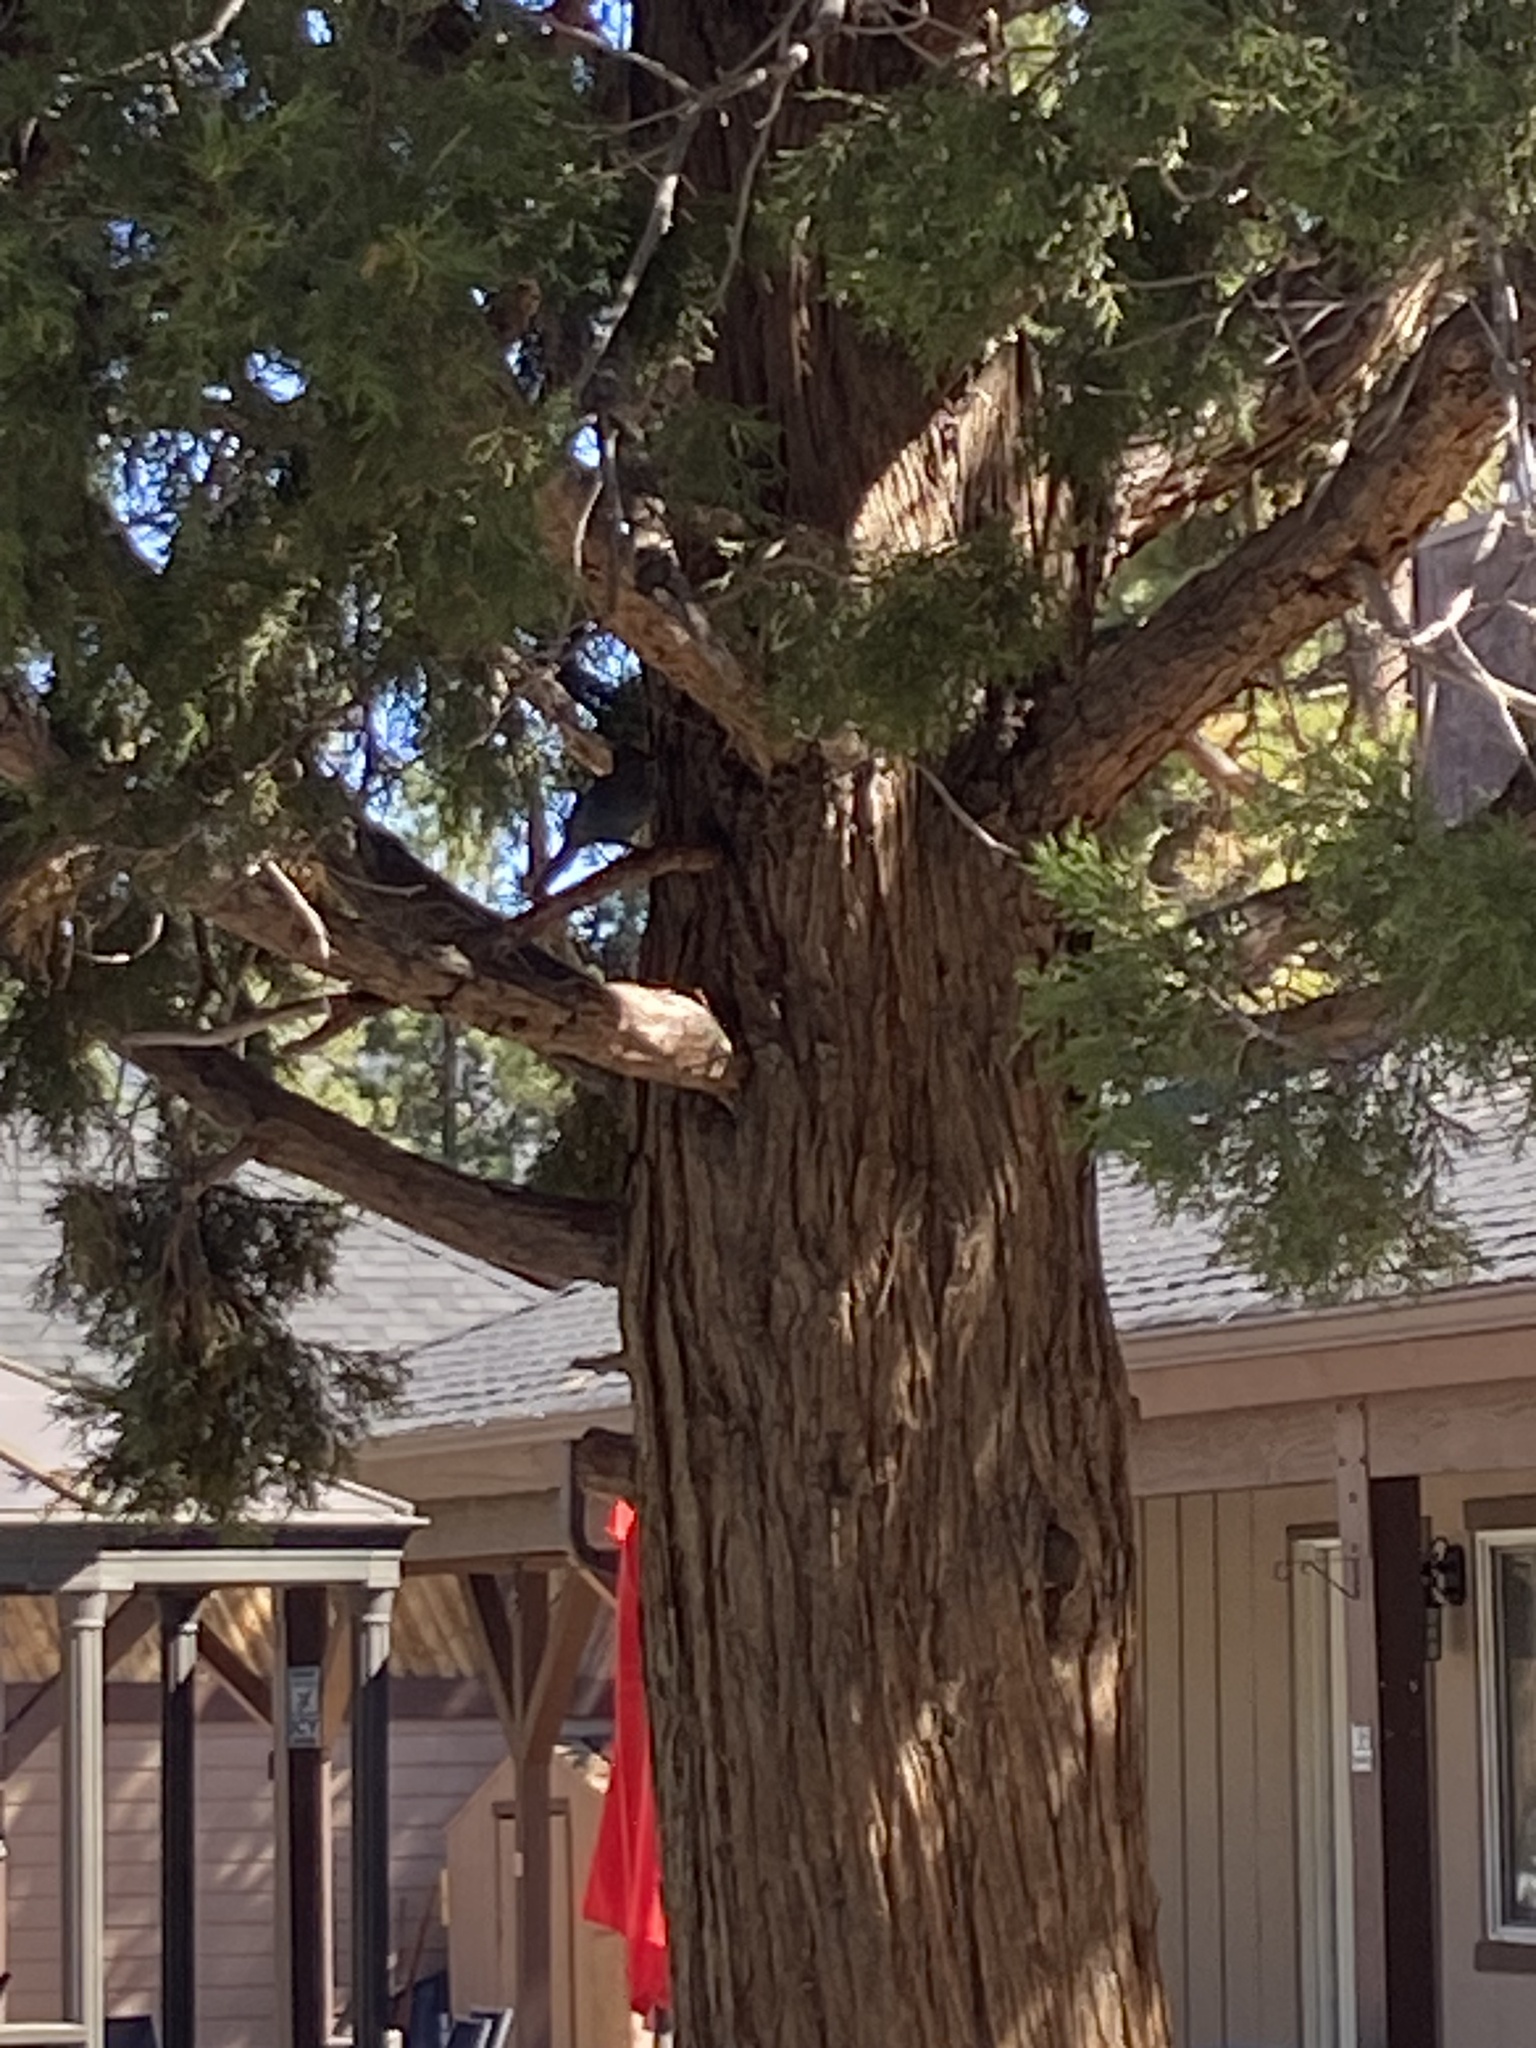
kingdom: Animalia
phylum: Chordata
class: Aves
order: Passeriformes
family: Corvidae
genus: Cyanocitta
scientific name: Cyanocitta stelleri
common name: Steller's jay
